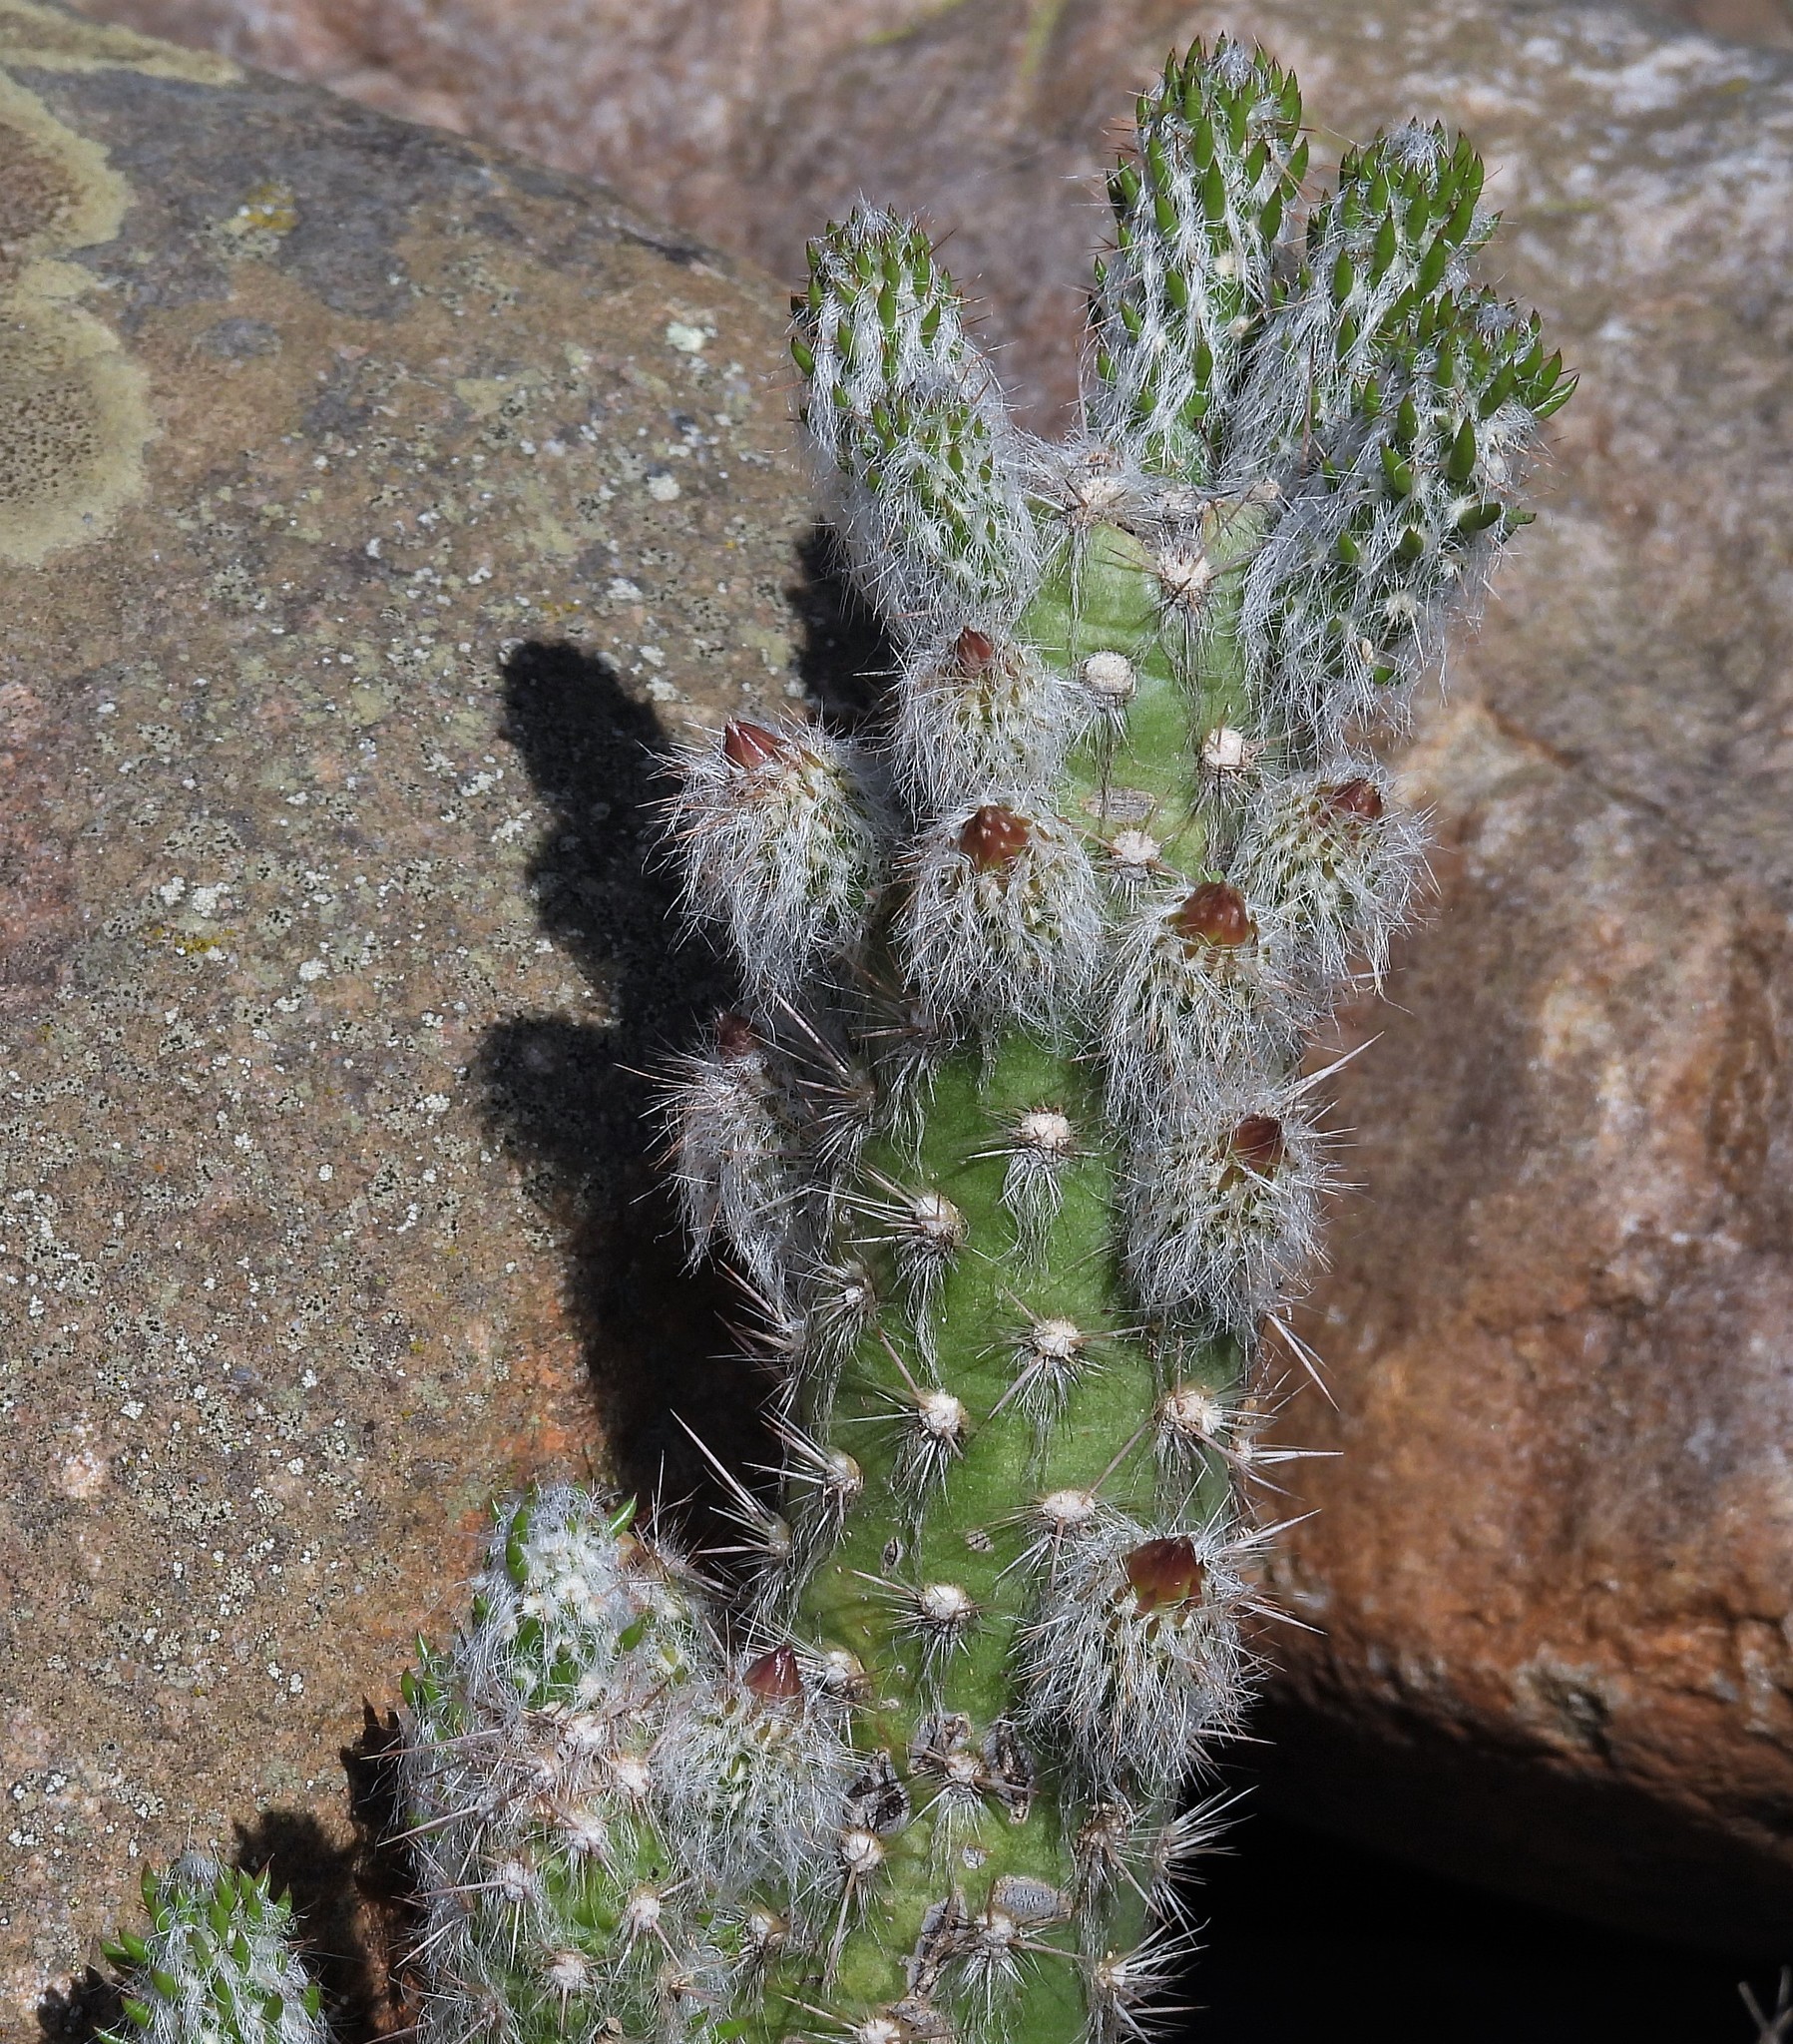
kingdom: Plantae
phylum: Tracheophyta
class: Magnoliopsida
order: Caryophyllales
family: Cactaceae
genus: Austrocylindropuntia
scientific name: Austrocylindropuntia vestita
